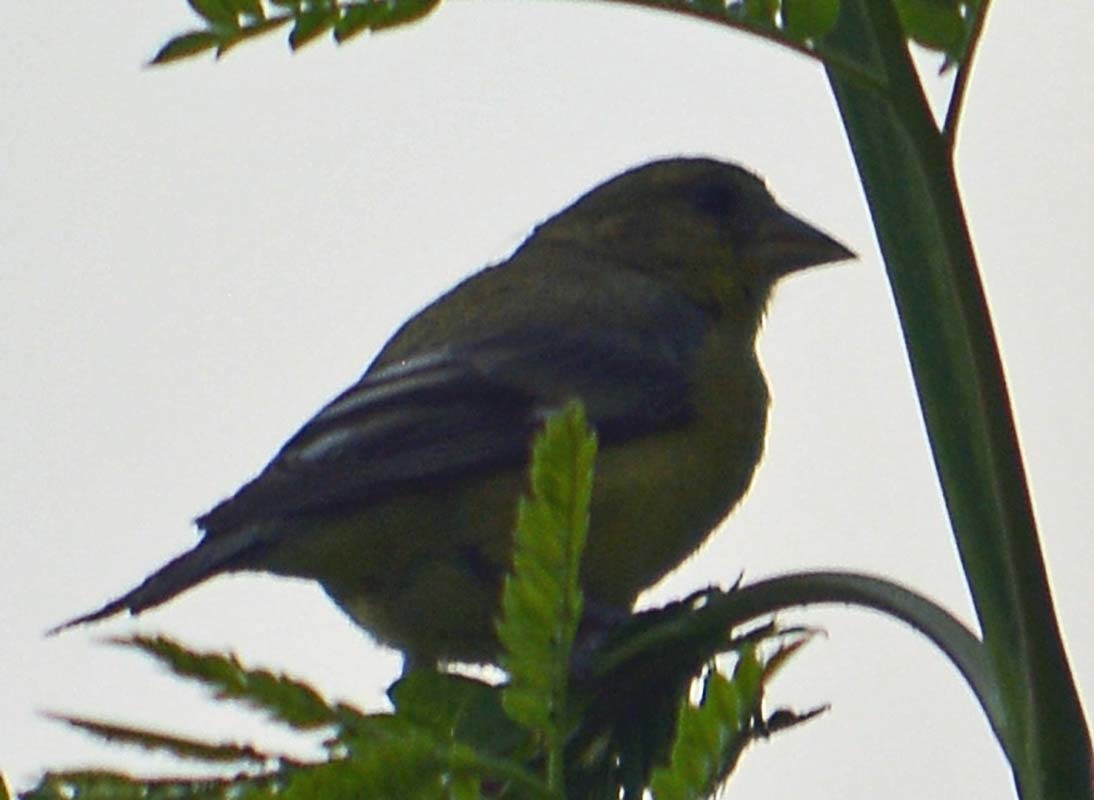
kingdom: Animalia
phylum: Chordata
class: Aves
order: Passeriformes
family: Fringillidae
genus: Spinus
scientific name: Spinus psaltria
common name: Lesser goldfinch
